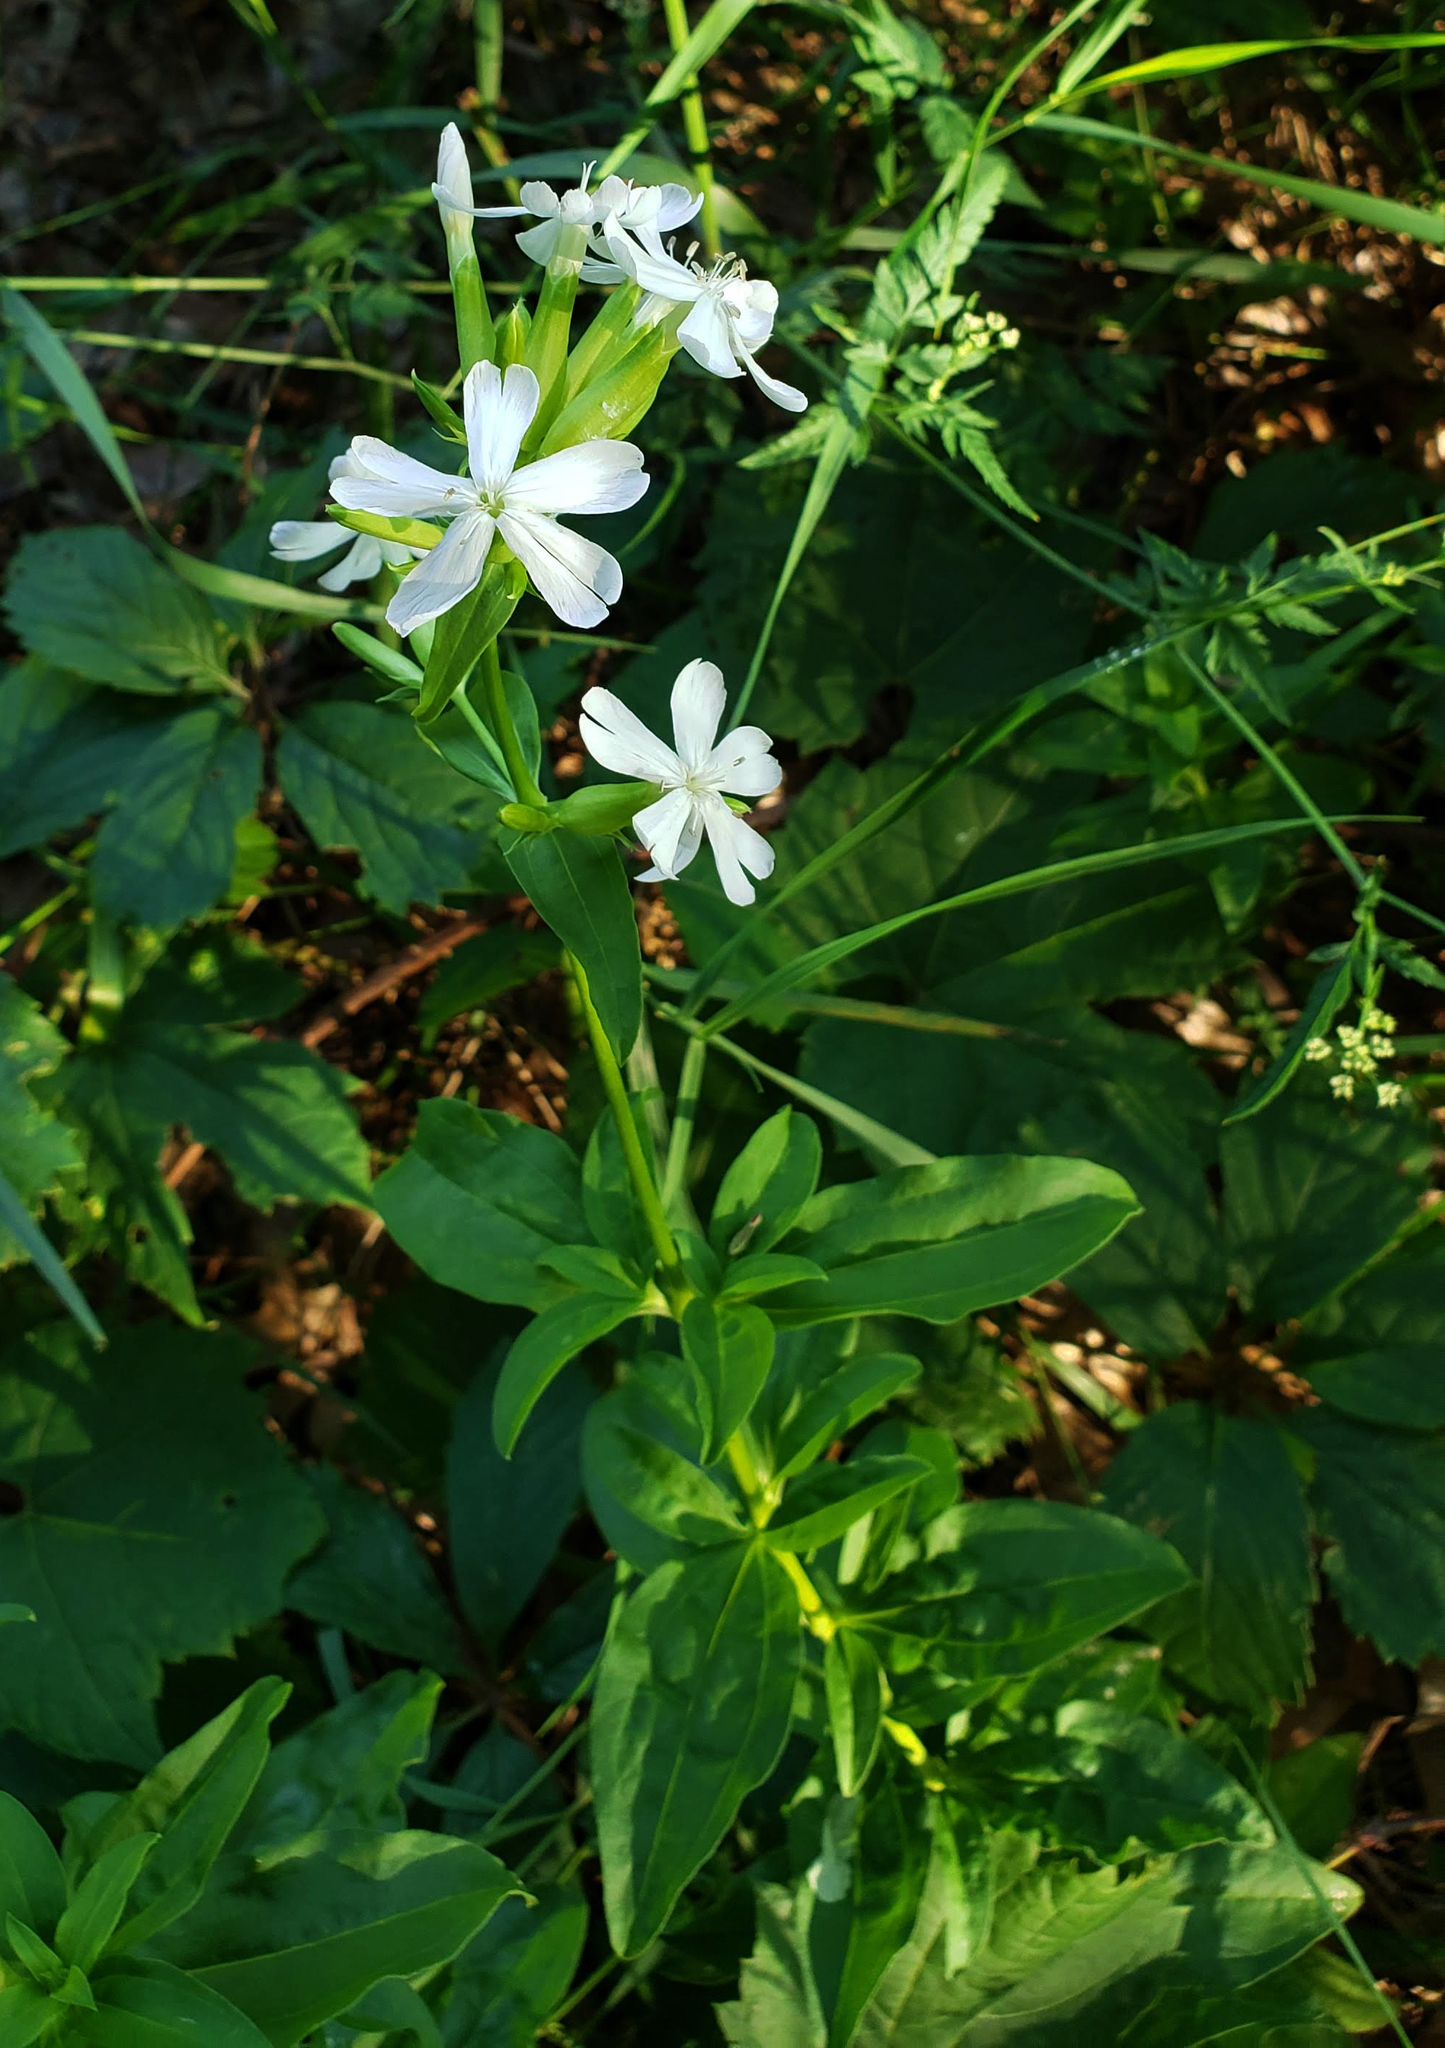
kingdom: Plantae
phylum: Tracheophyta
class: Magnoliopsida
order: Caryophyllales
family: Caryophyllaceae
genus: Saponaria
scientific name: Saponaria officinalis
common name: Soapwort
